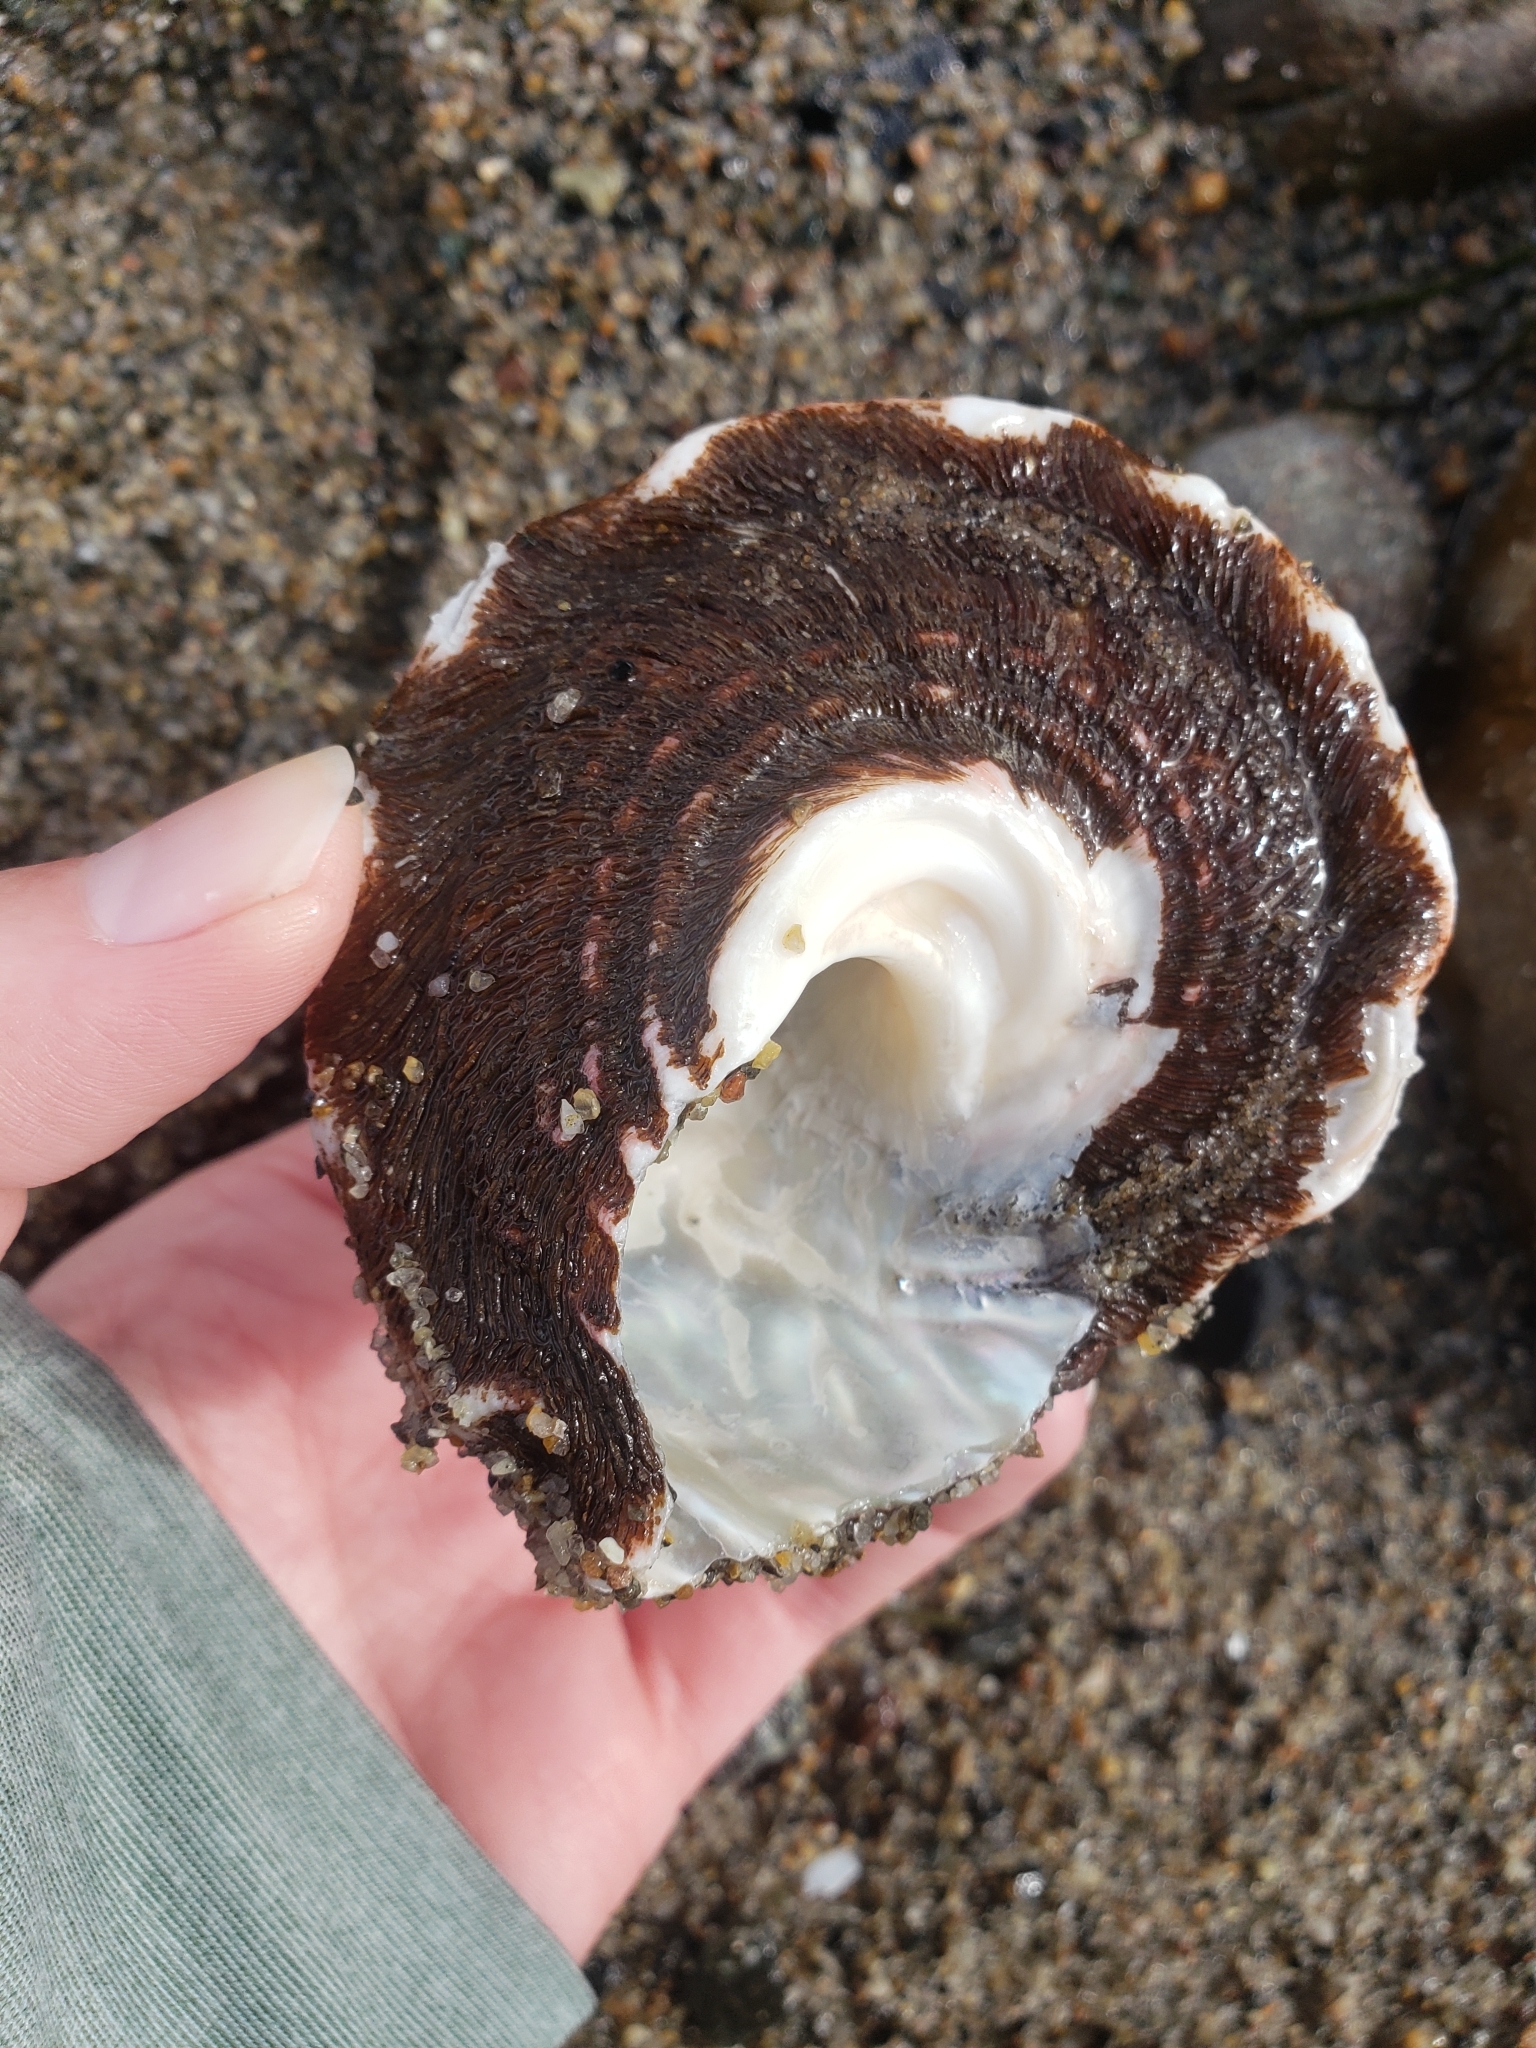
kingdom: Animalia
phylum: Mollusca
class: Gastropoda
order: Trochida
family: Turbinidae
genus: Megastraea
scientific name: Megastraea undosa
